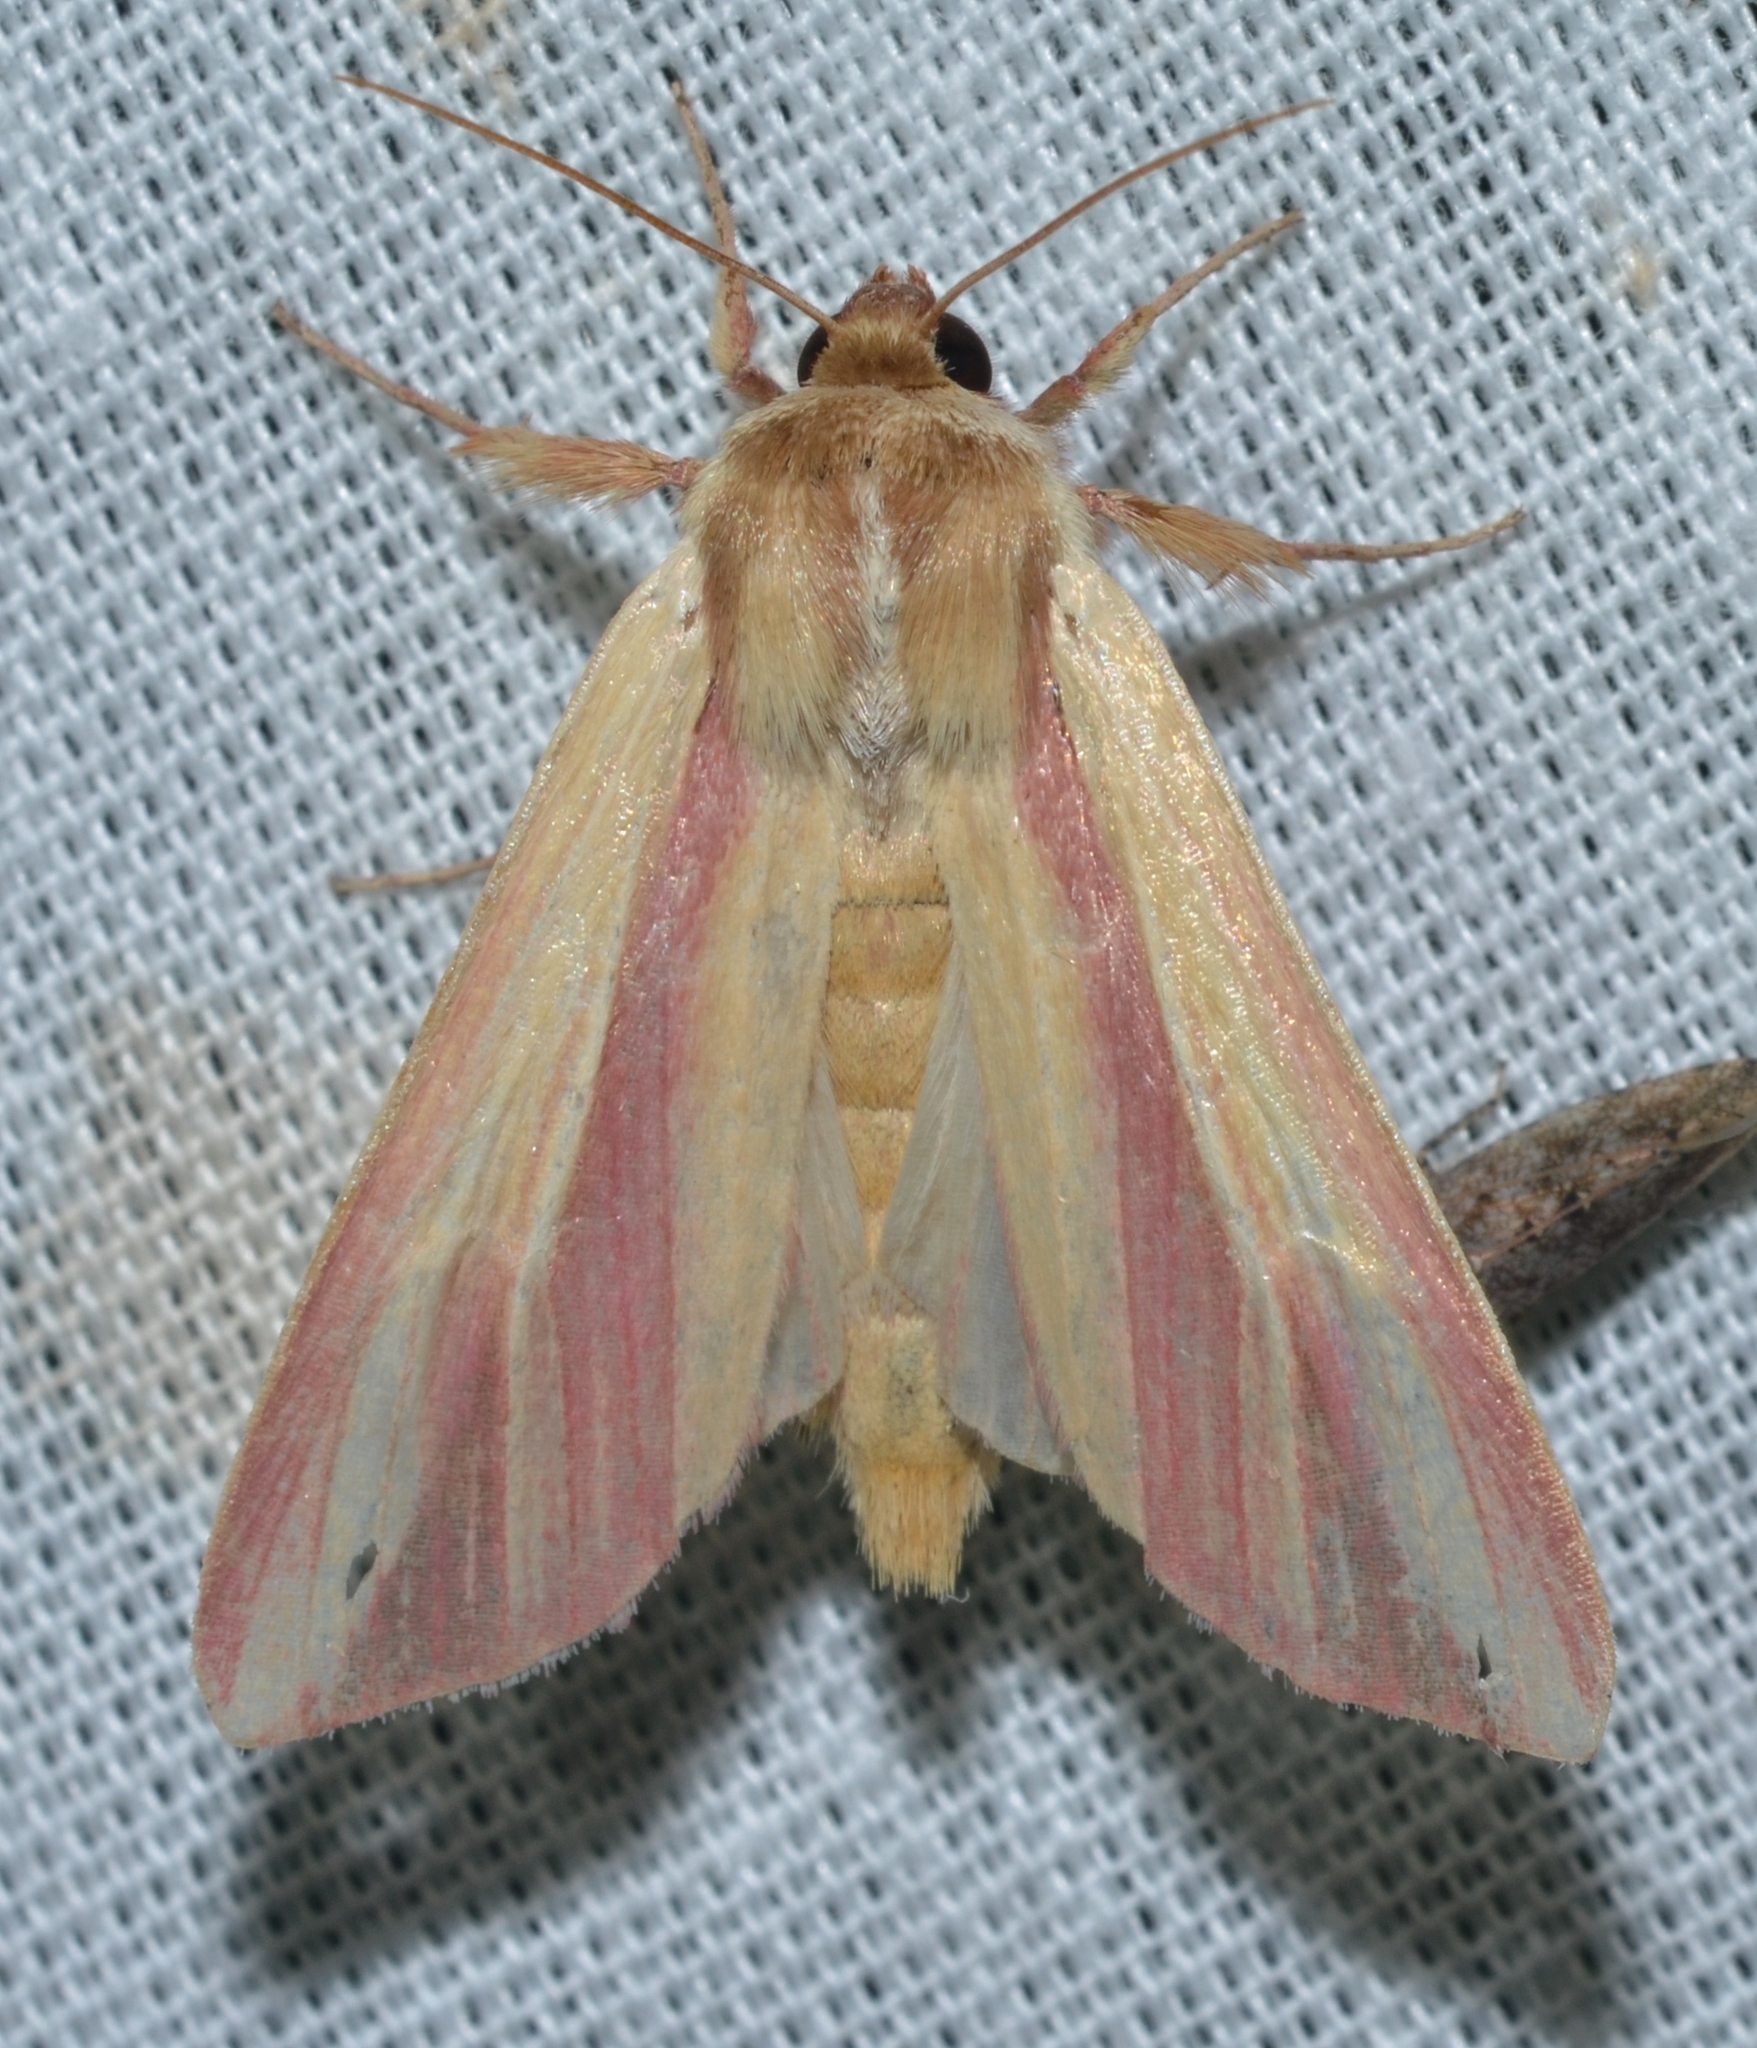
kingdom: Animalia
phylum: Arthropoda
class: Insecta
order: Lepidoptera
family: Noctuidae
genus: Dargida
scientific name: Dargida rubripennis
